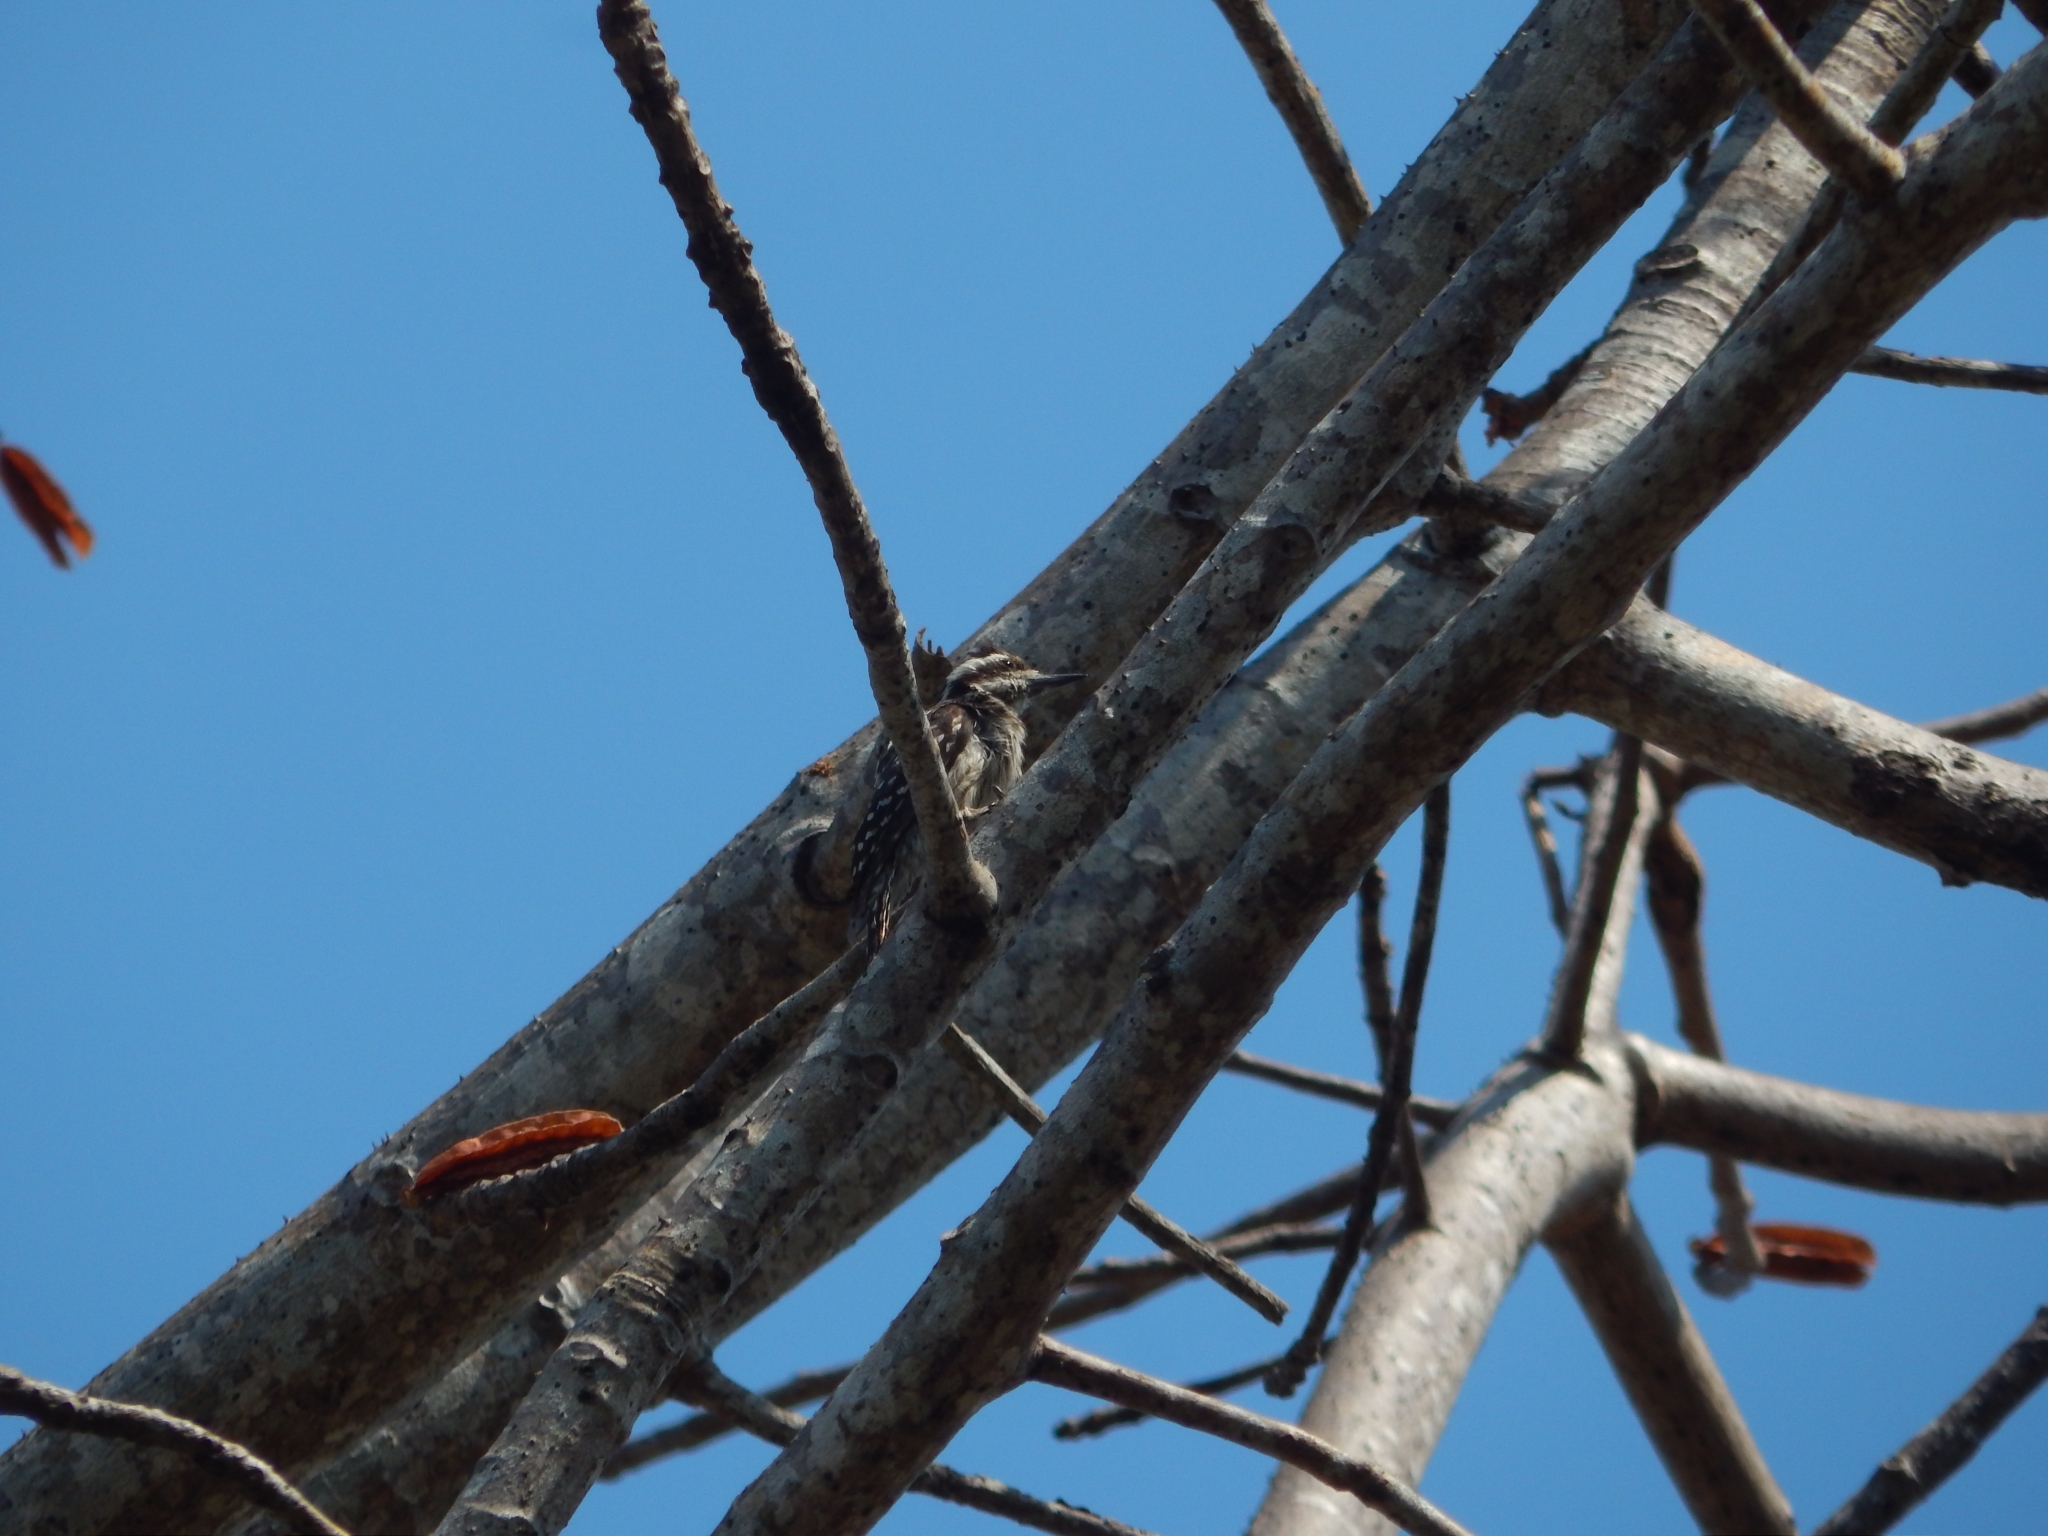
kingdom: Animalia
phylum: Chordata
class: Aves
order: Piciformes
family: Picidae
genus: Yungipicus
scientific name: Yungipicus moluccensis
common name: Sunda pygmy woodpecker
